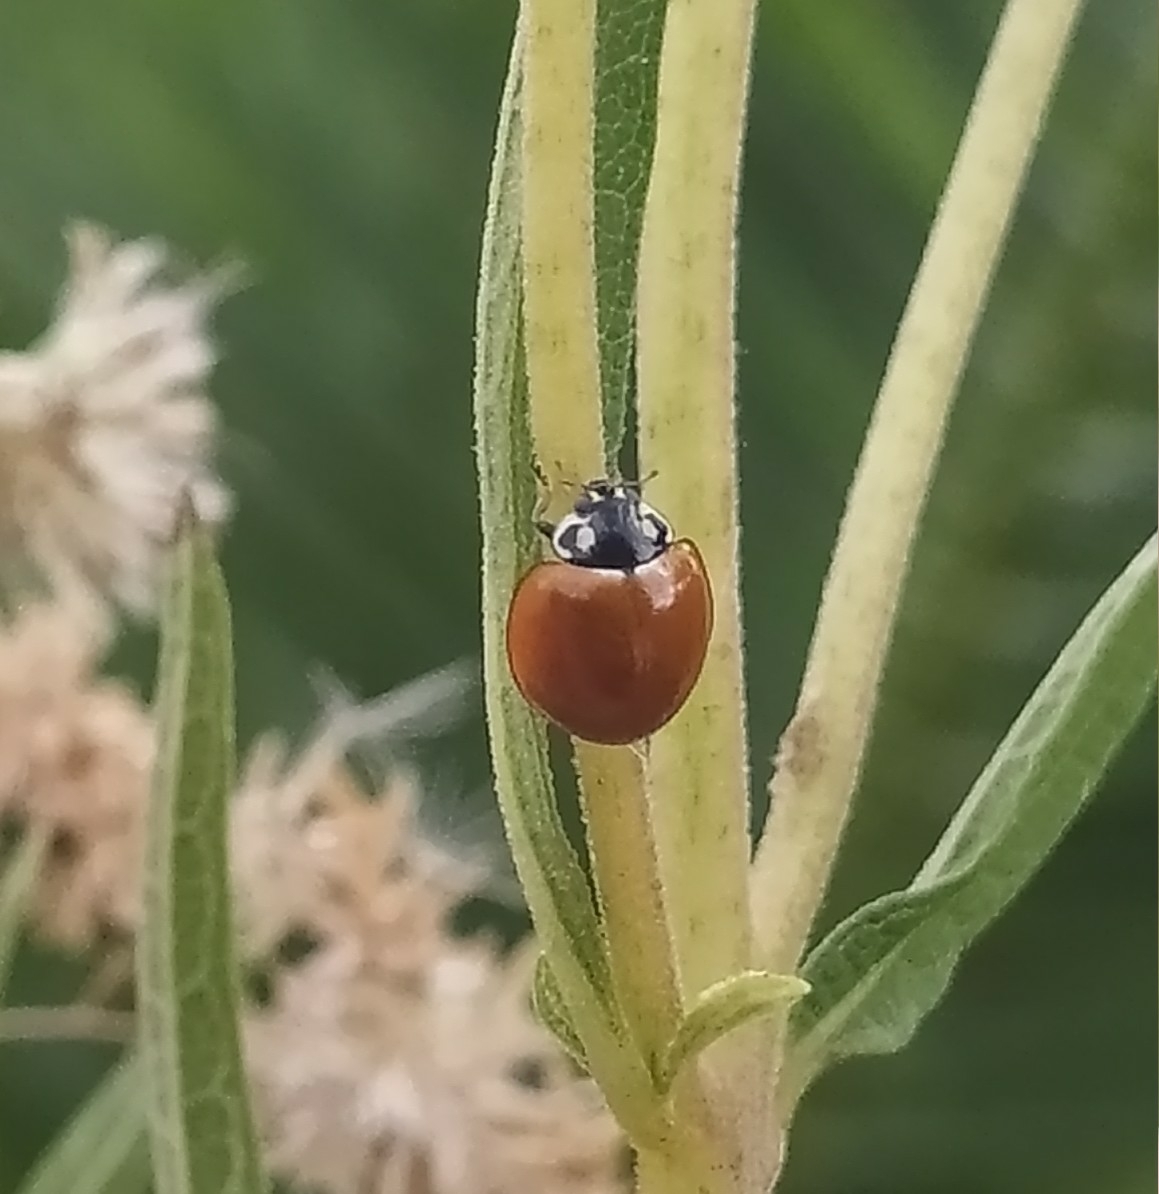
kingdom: Animalia
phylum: Arthropoda
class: Insecta
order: Coleoptera
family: Coccinellidae
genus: Cycloneda
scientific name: Cycloneda sanguinea
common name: Ladybird beetle
